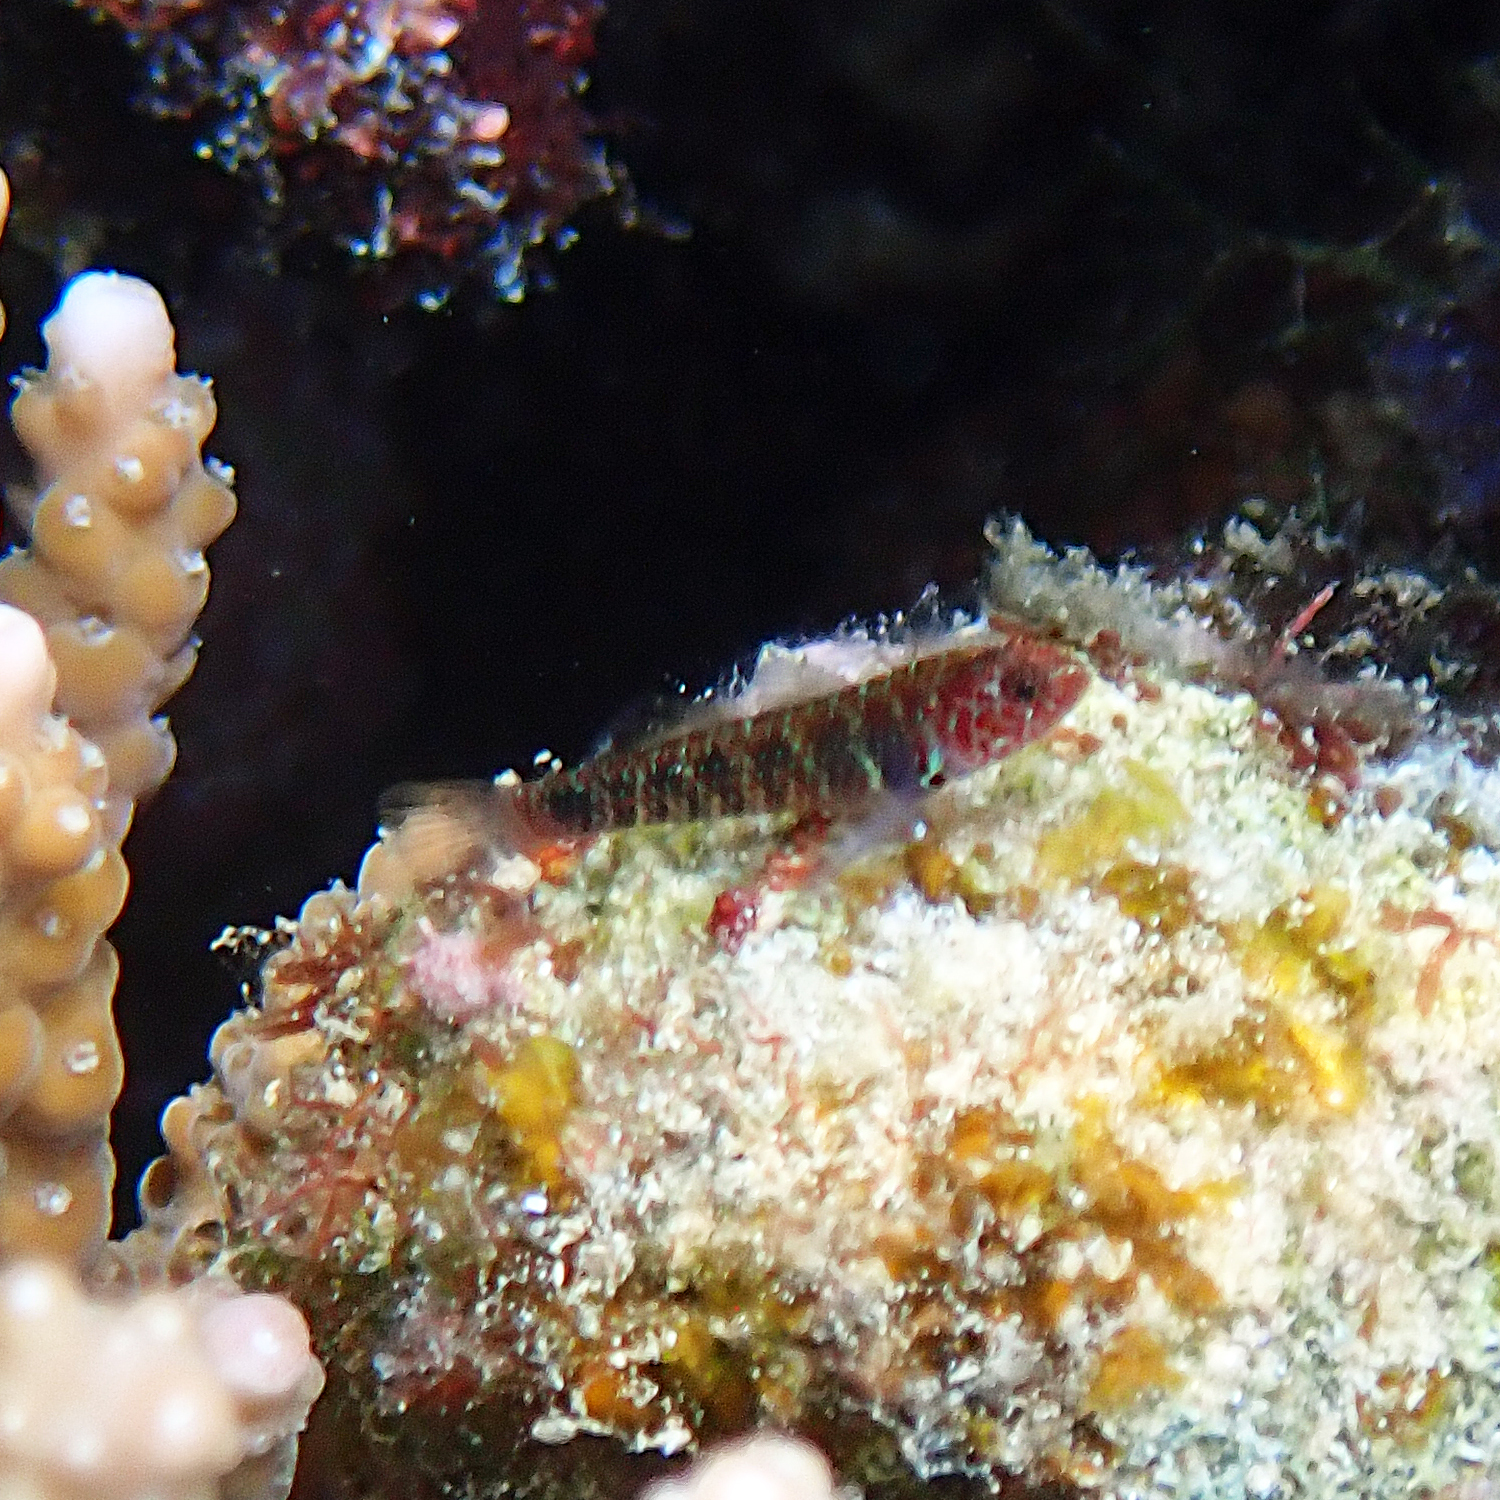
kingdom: Animalia
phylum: Chordata
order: Perciformes
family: Gobiidae
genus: Eviota
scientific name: Eviota hoesei
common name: Doug's eviota
